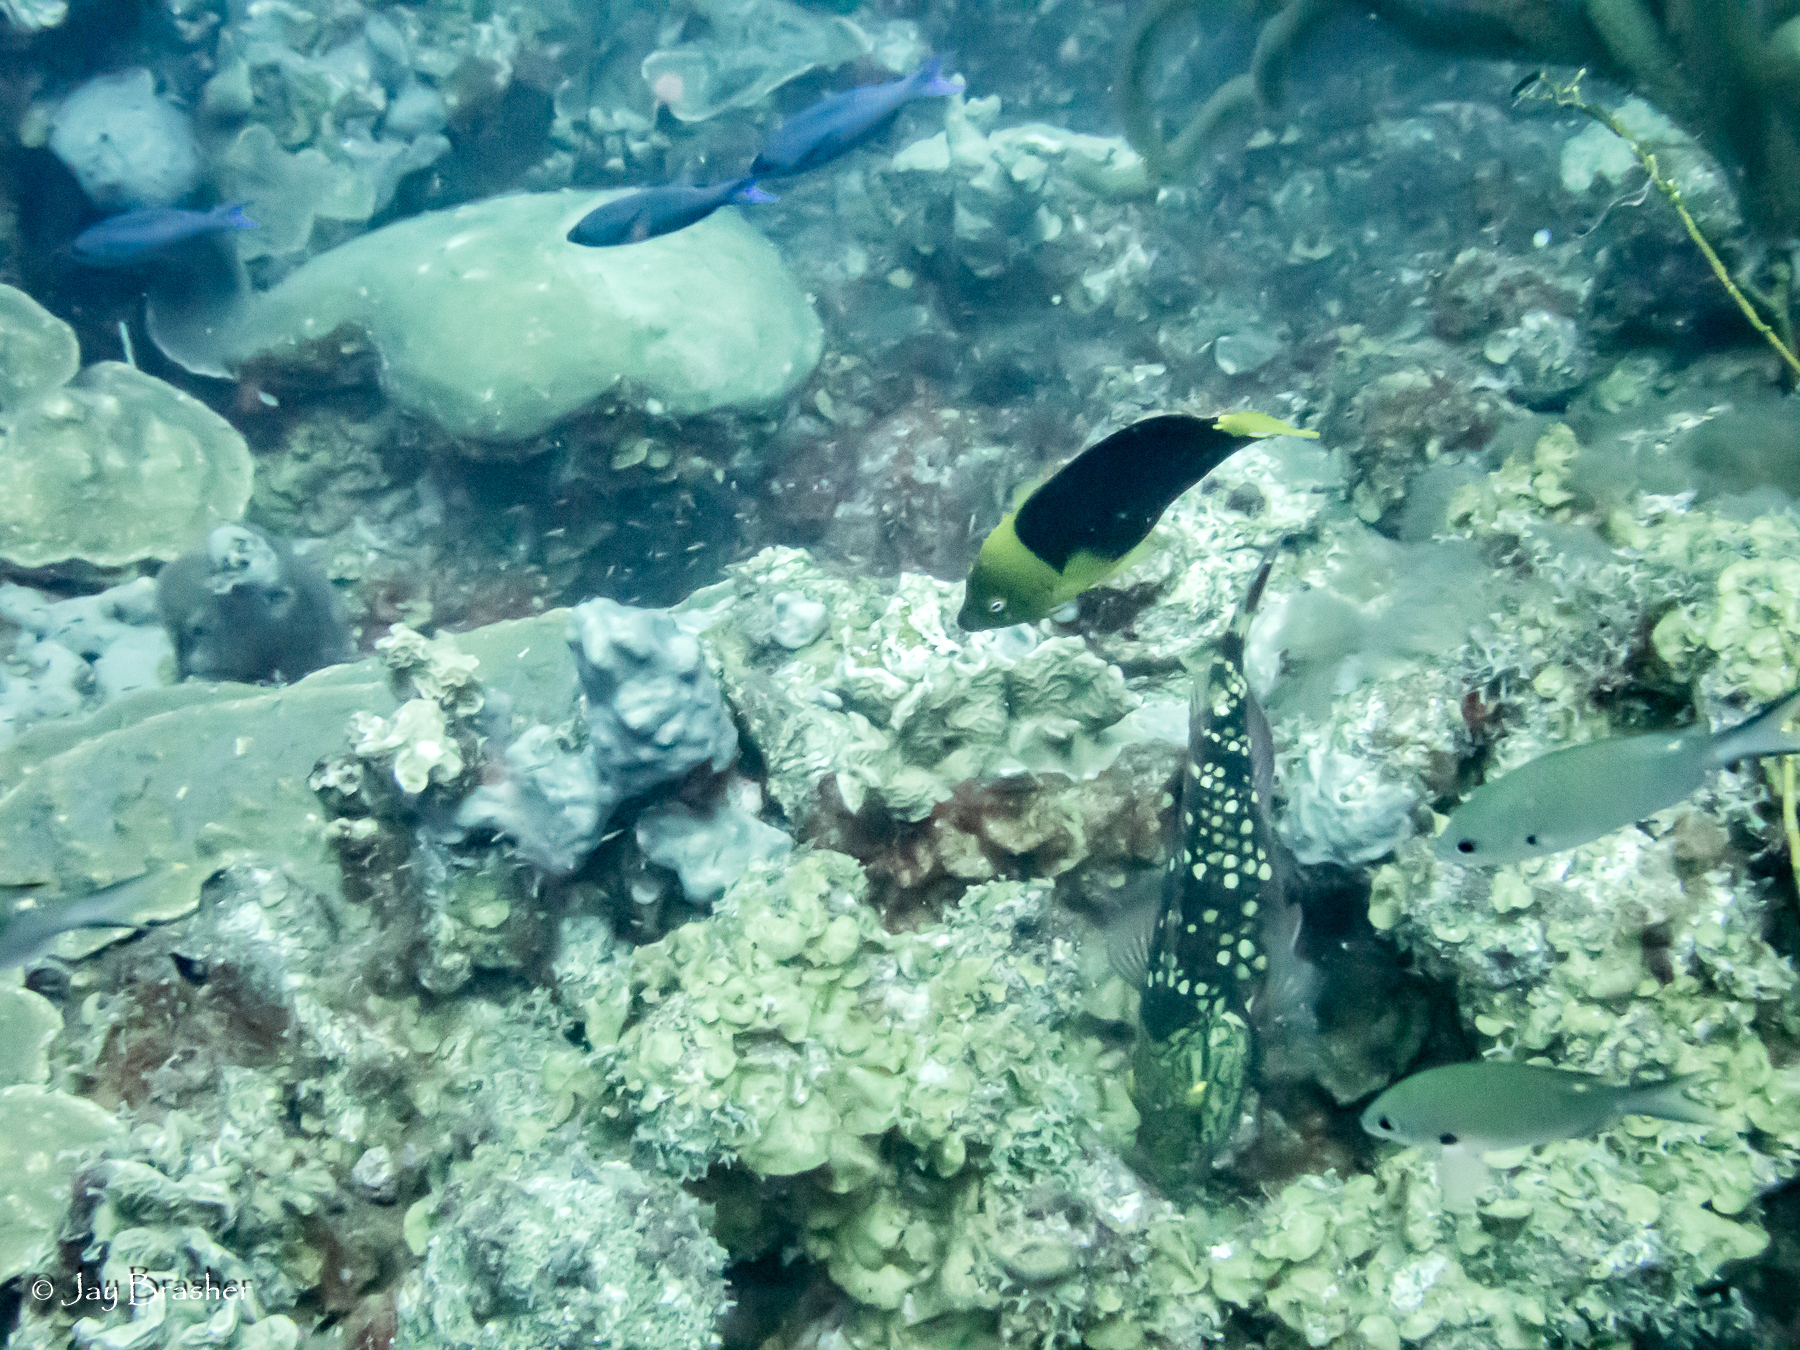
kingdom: Animalia
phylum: Chordata
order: Perciformes
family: Labridae
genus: Bodianus
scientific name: Bodianus
